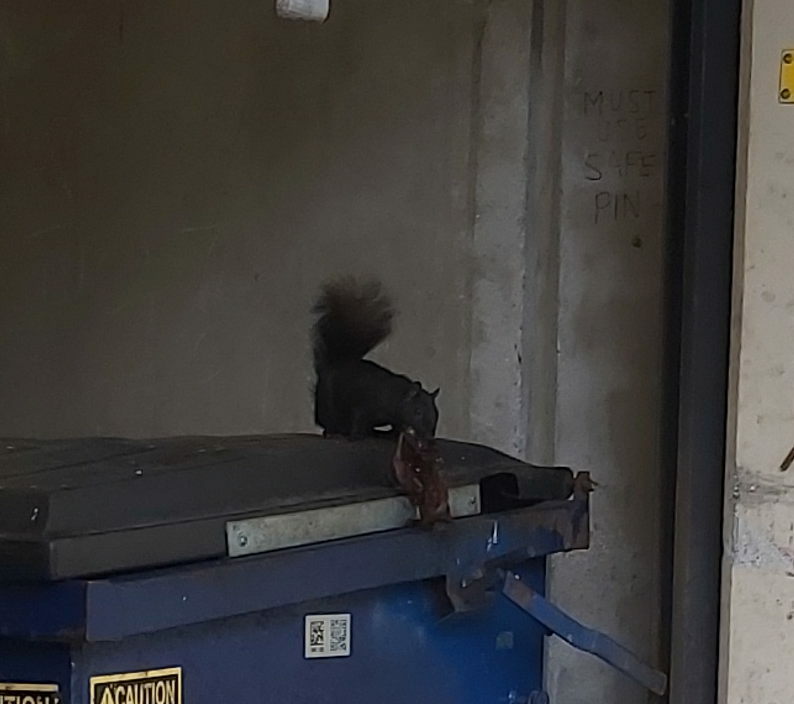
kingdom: Animalia
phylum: Chordata
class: Mammalia
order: Rodentia
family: Sciuridae
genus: Sciurus
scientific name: Sciurus carolinensis
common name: Eastern gray squirrel
